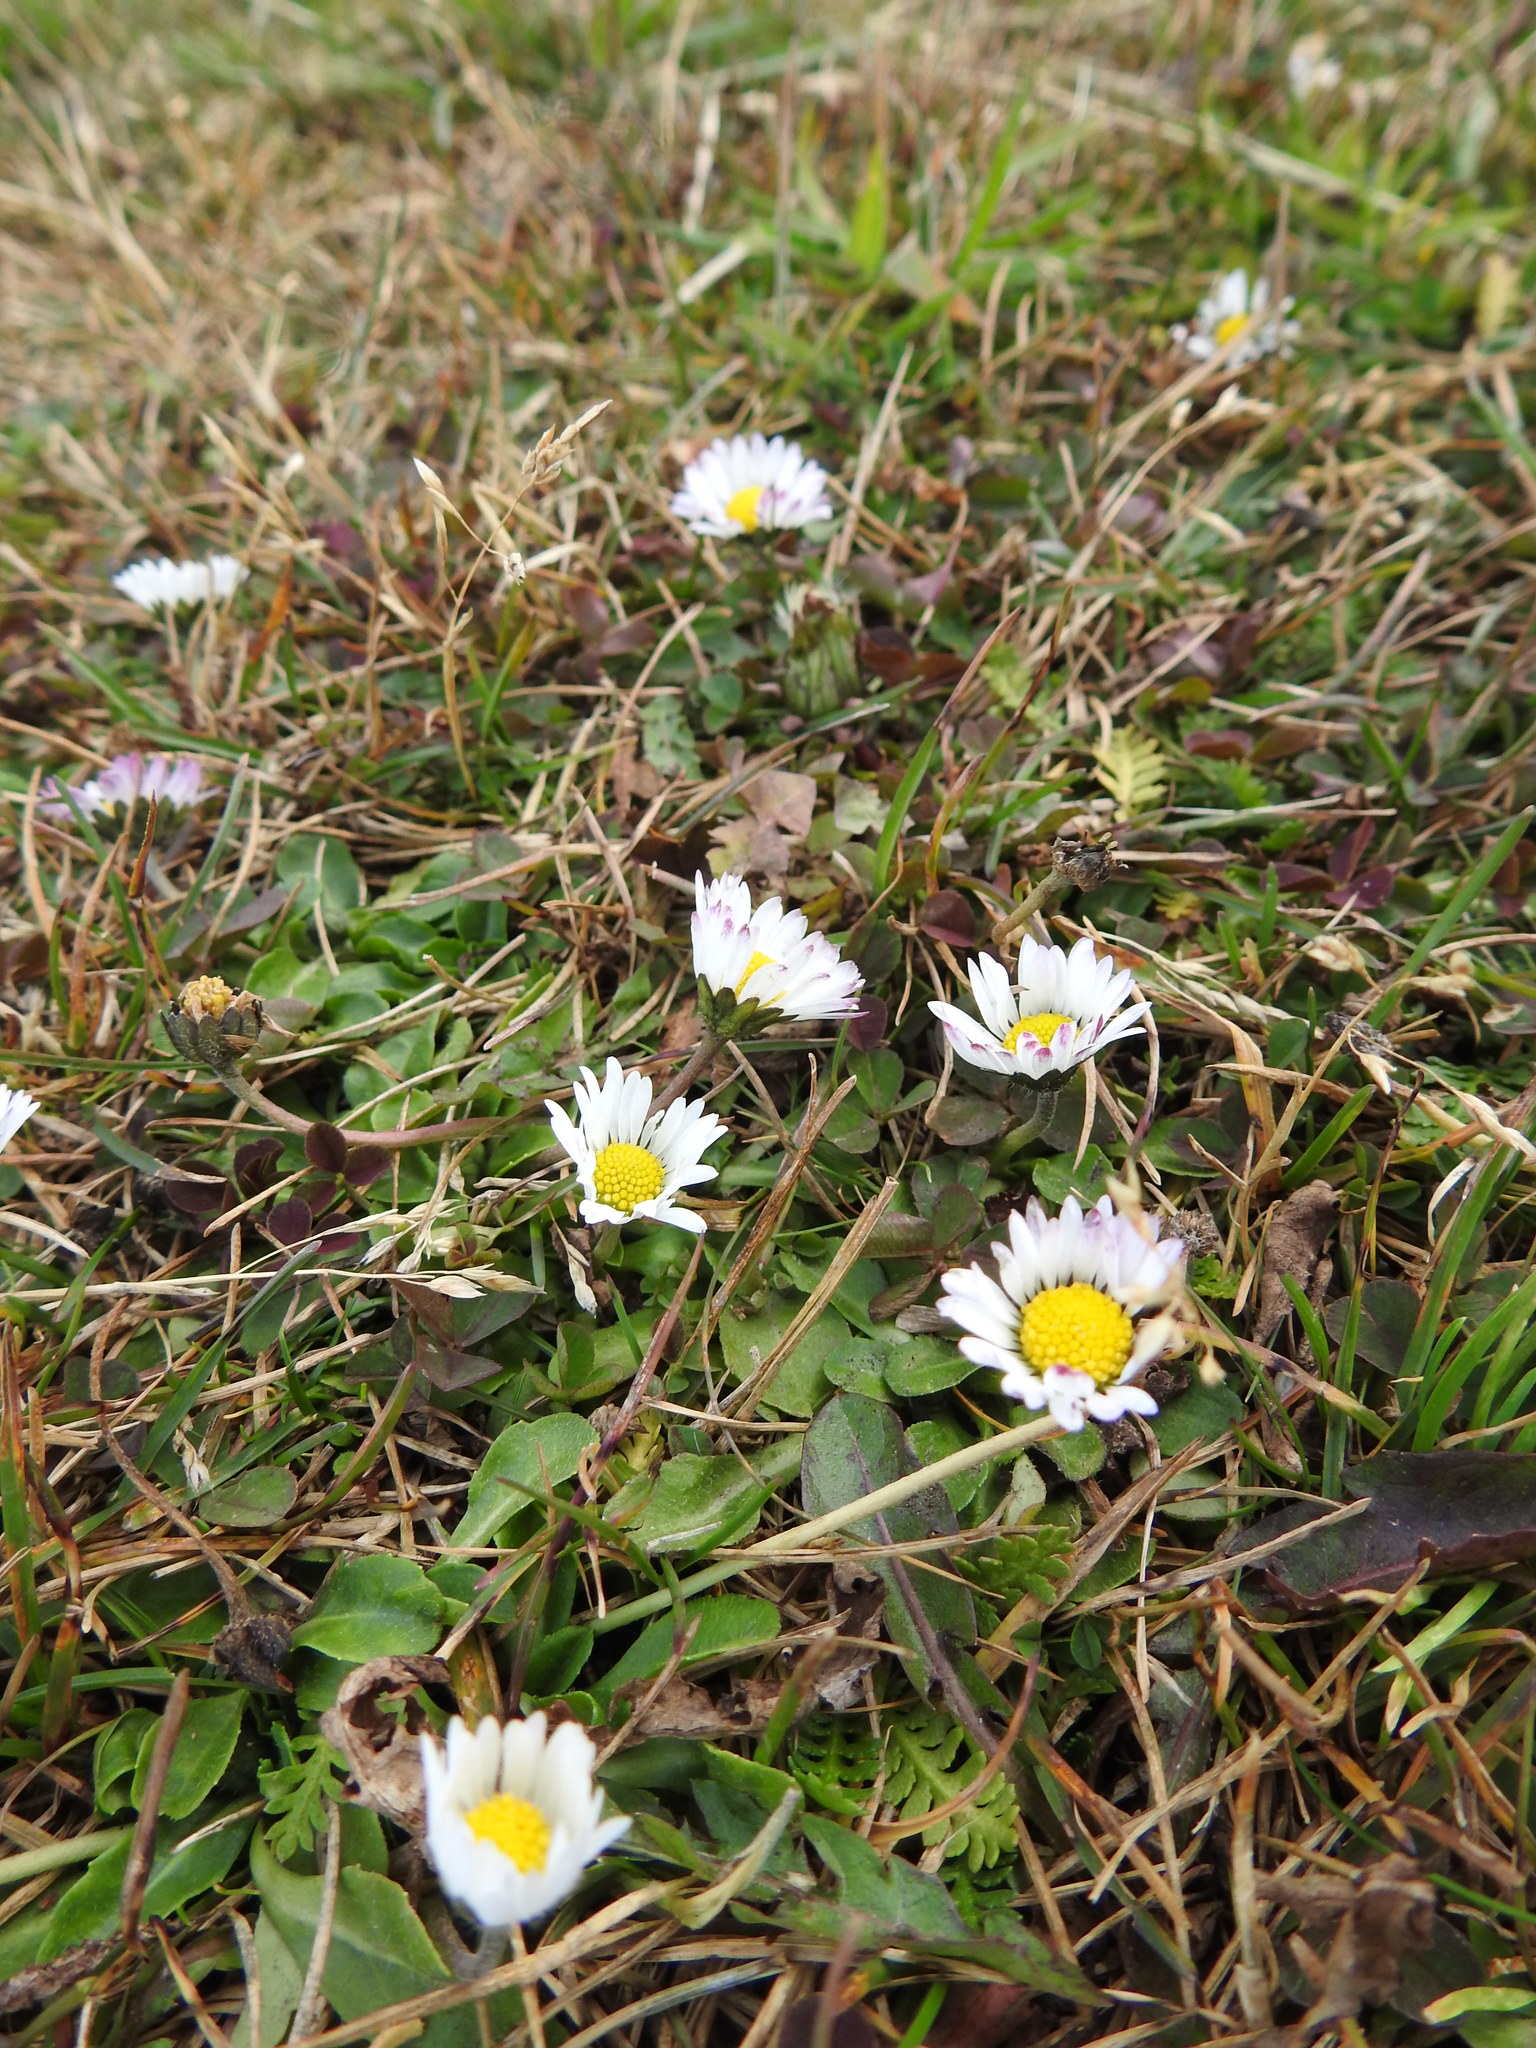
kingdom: Plantae
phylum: Tracheophyta
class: Magnoliopsida
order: Asterales
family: Asteraceae
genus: Bellis
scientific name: Bellis perennis
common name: Lawndaisy
